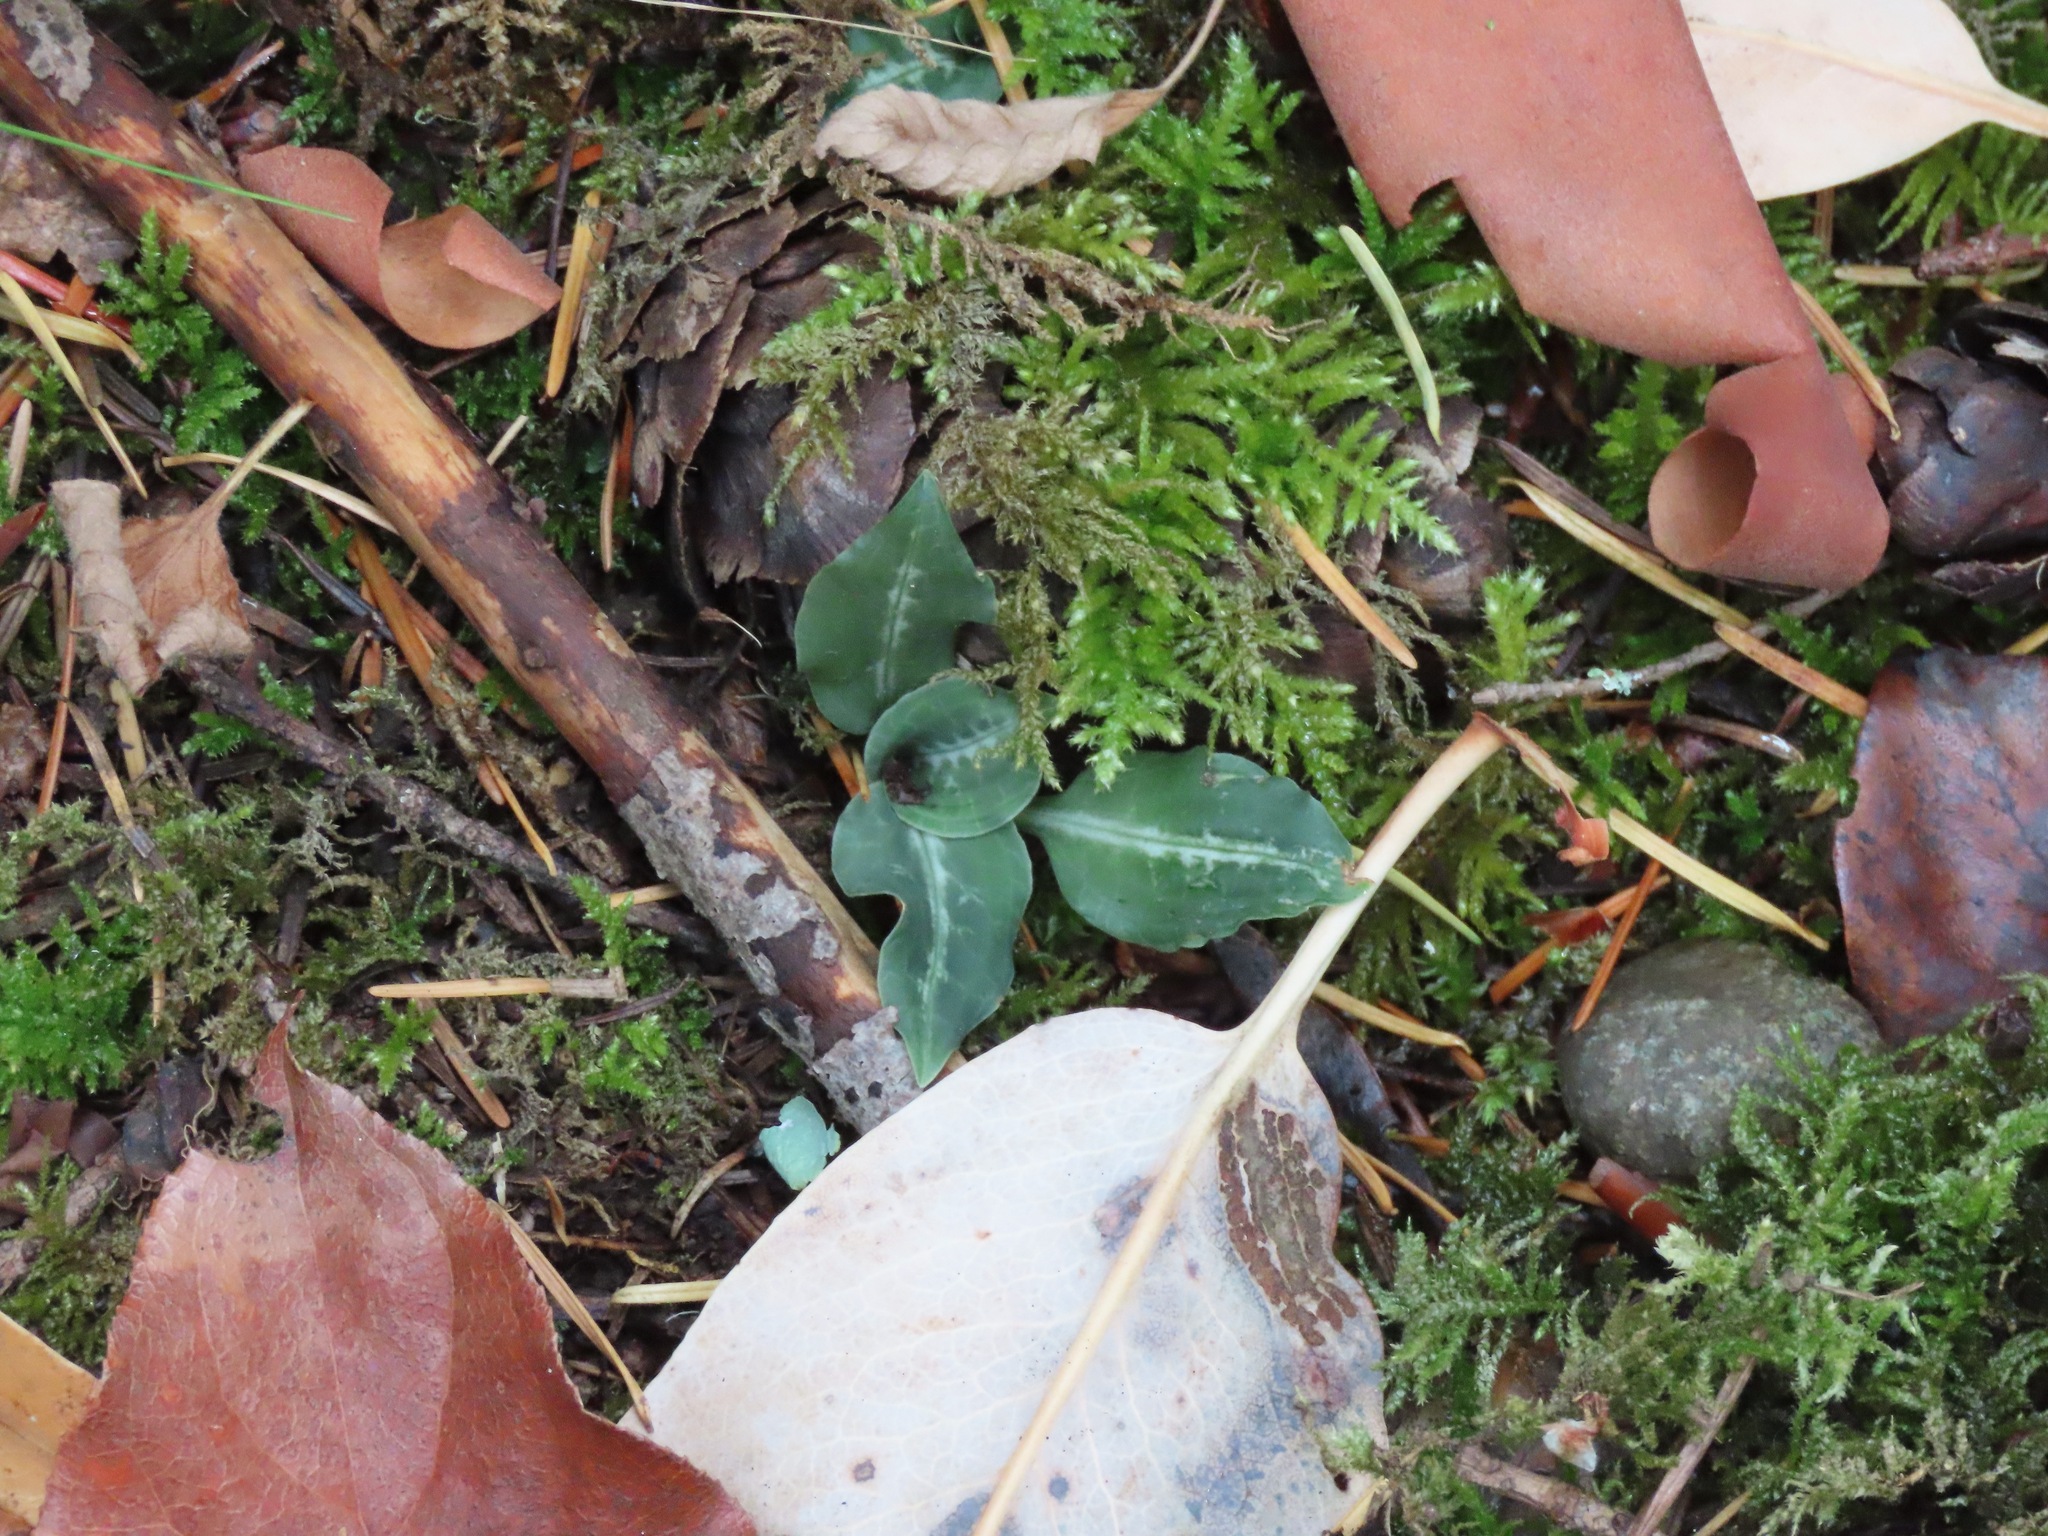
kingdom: Plantae
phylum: Tracheophyta
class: Liliopsida
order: Asparagales
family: Orchidaceae
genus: Goodyera
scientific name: Goodyera oblongifolia
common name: Giant rattlesnake-plantain
